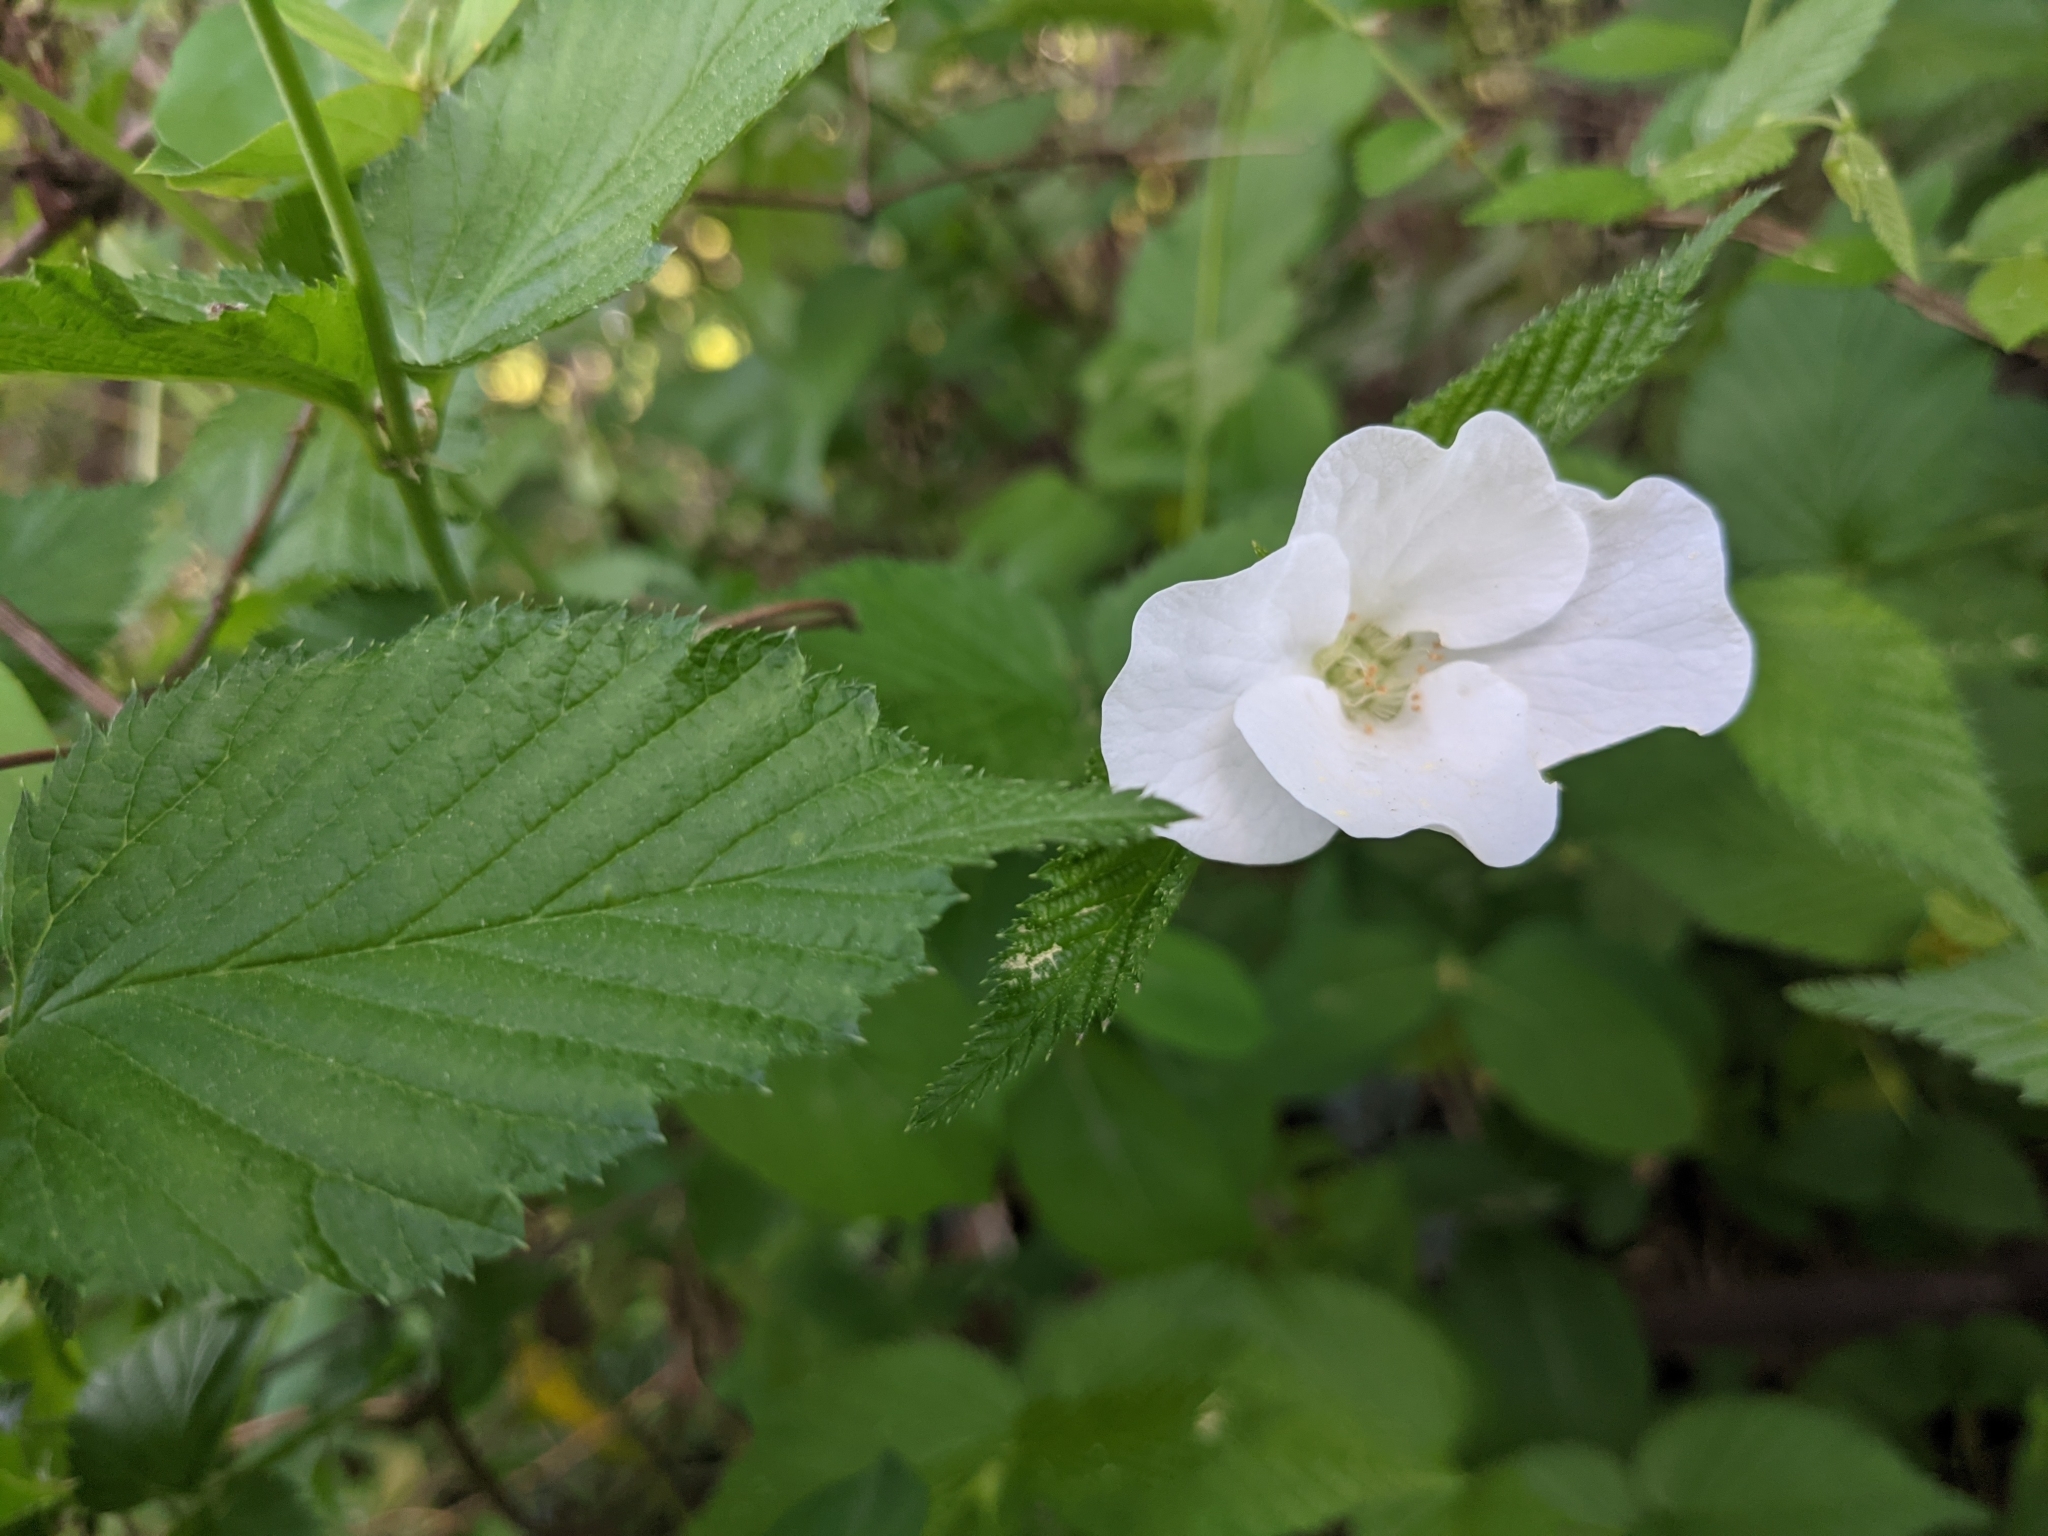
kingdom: Plantae
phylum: Tracheophyta
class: Magnoliopsida
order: Rosales
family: Rosaceae
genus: Rhodotypos
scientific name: Rhodotypos scandens
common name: Jetbead
